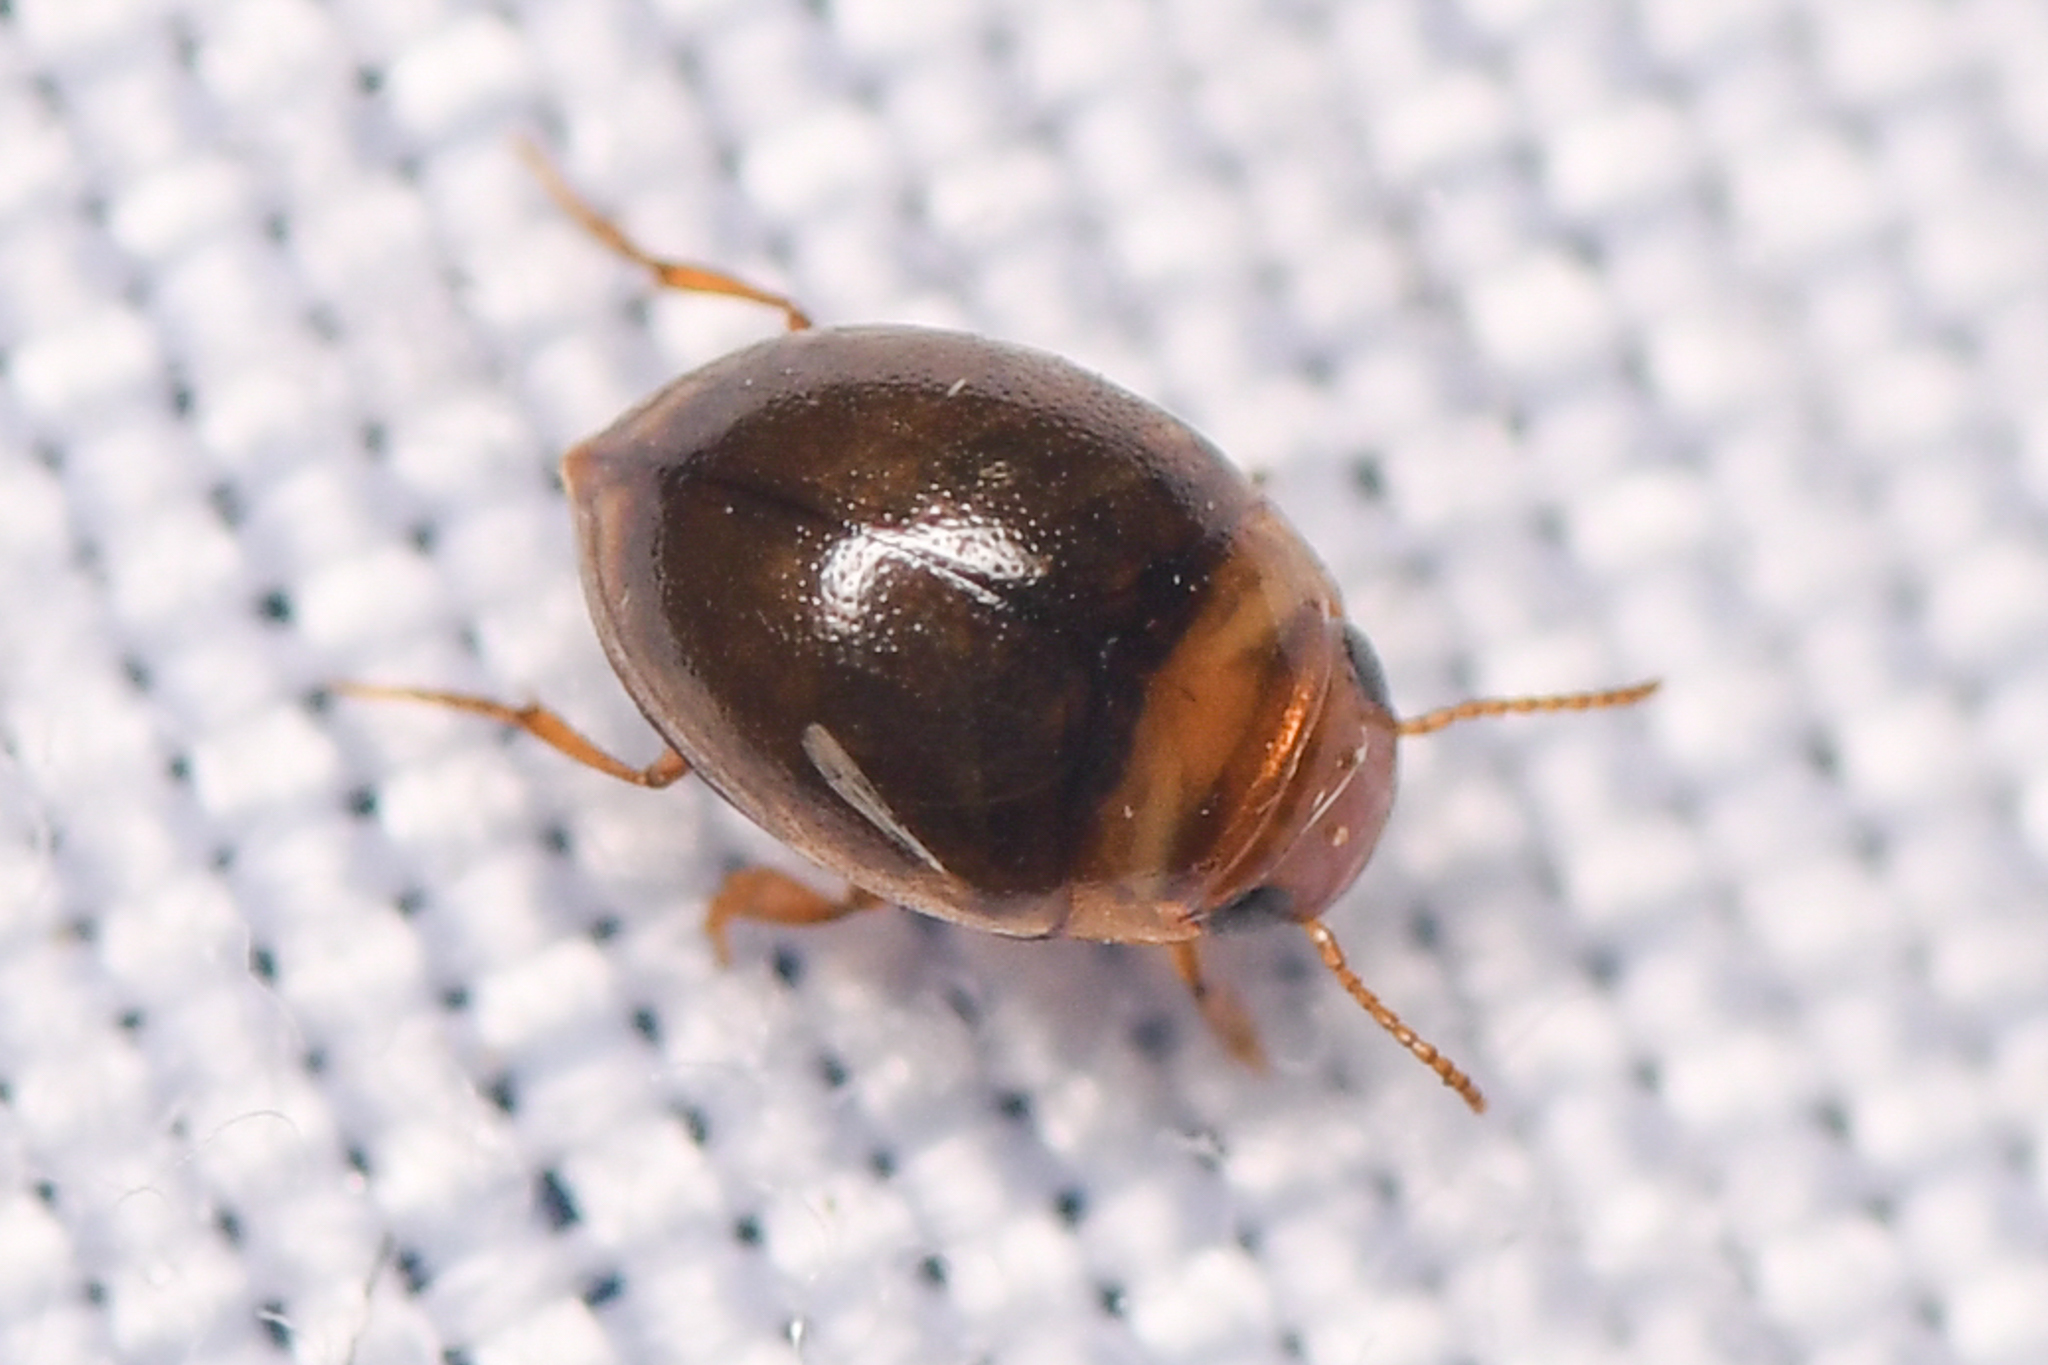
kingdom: Animalia
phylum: Arthropoda
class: Insecta
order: Coleoptera
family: Dytiscidae
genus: Hydrovatus
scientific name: Hydrovatus
